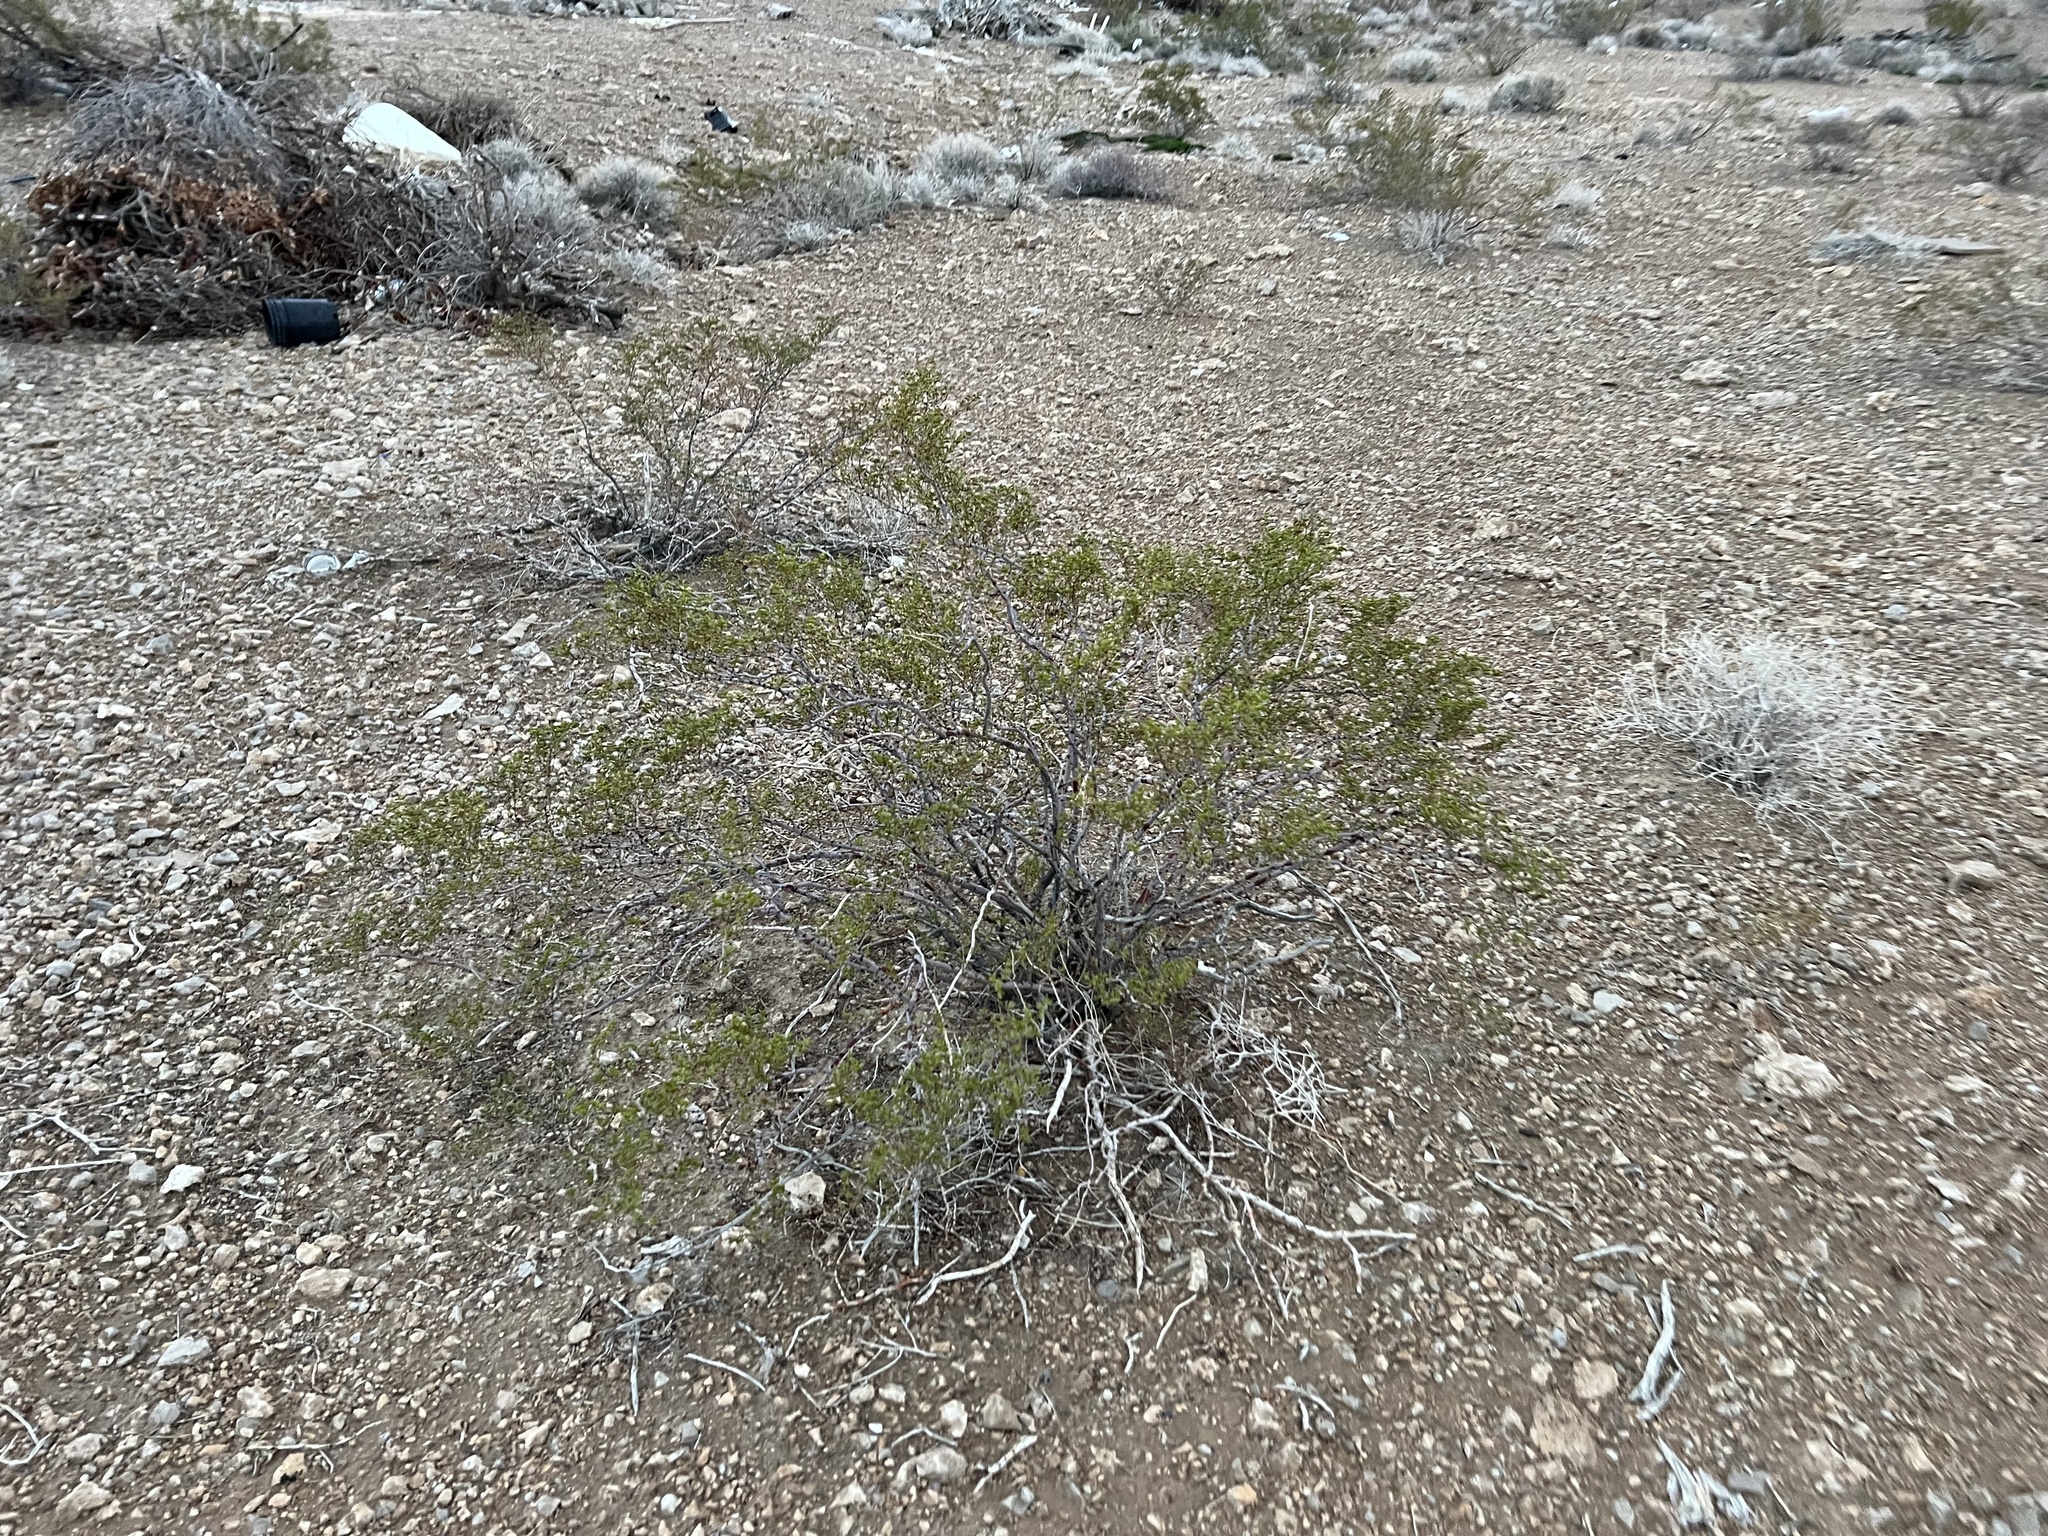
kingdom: Plantae
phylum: Tracheophyta
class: Magnoliopsida
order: Zygophyllales
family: Zygophyllaceae
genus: Larrea
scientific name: Larrea tridentata
